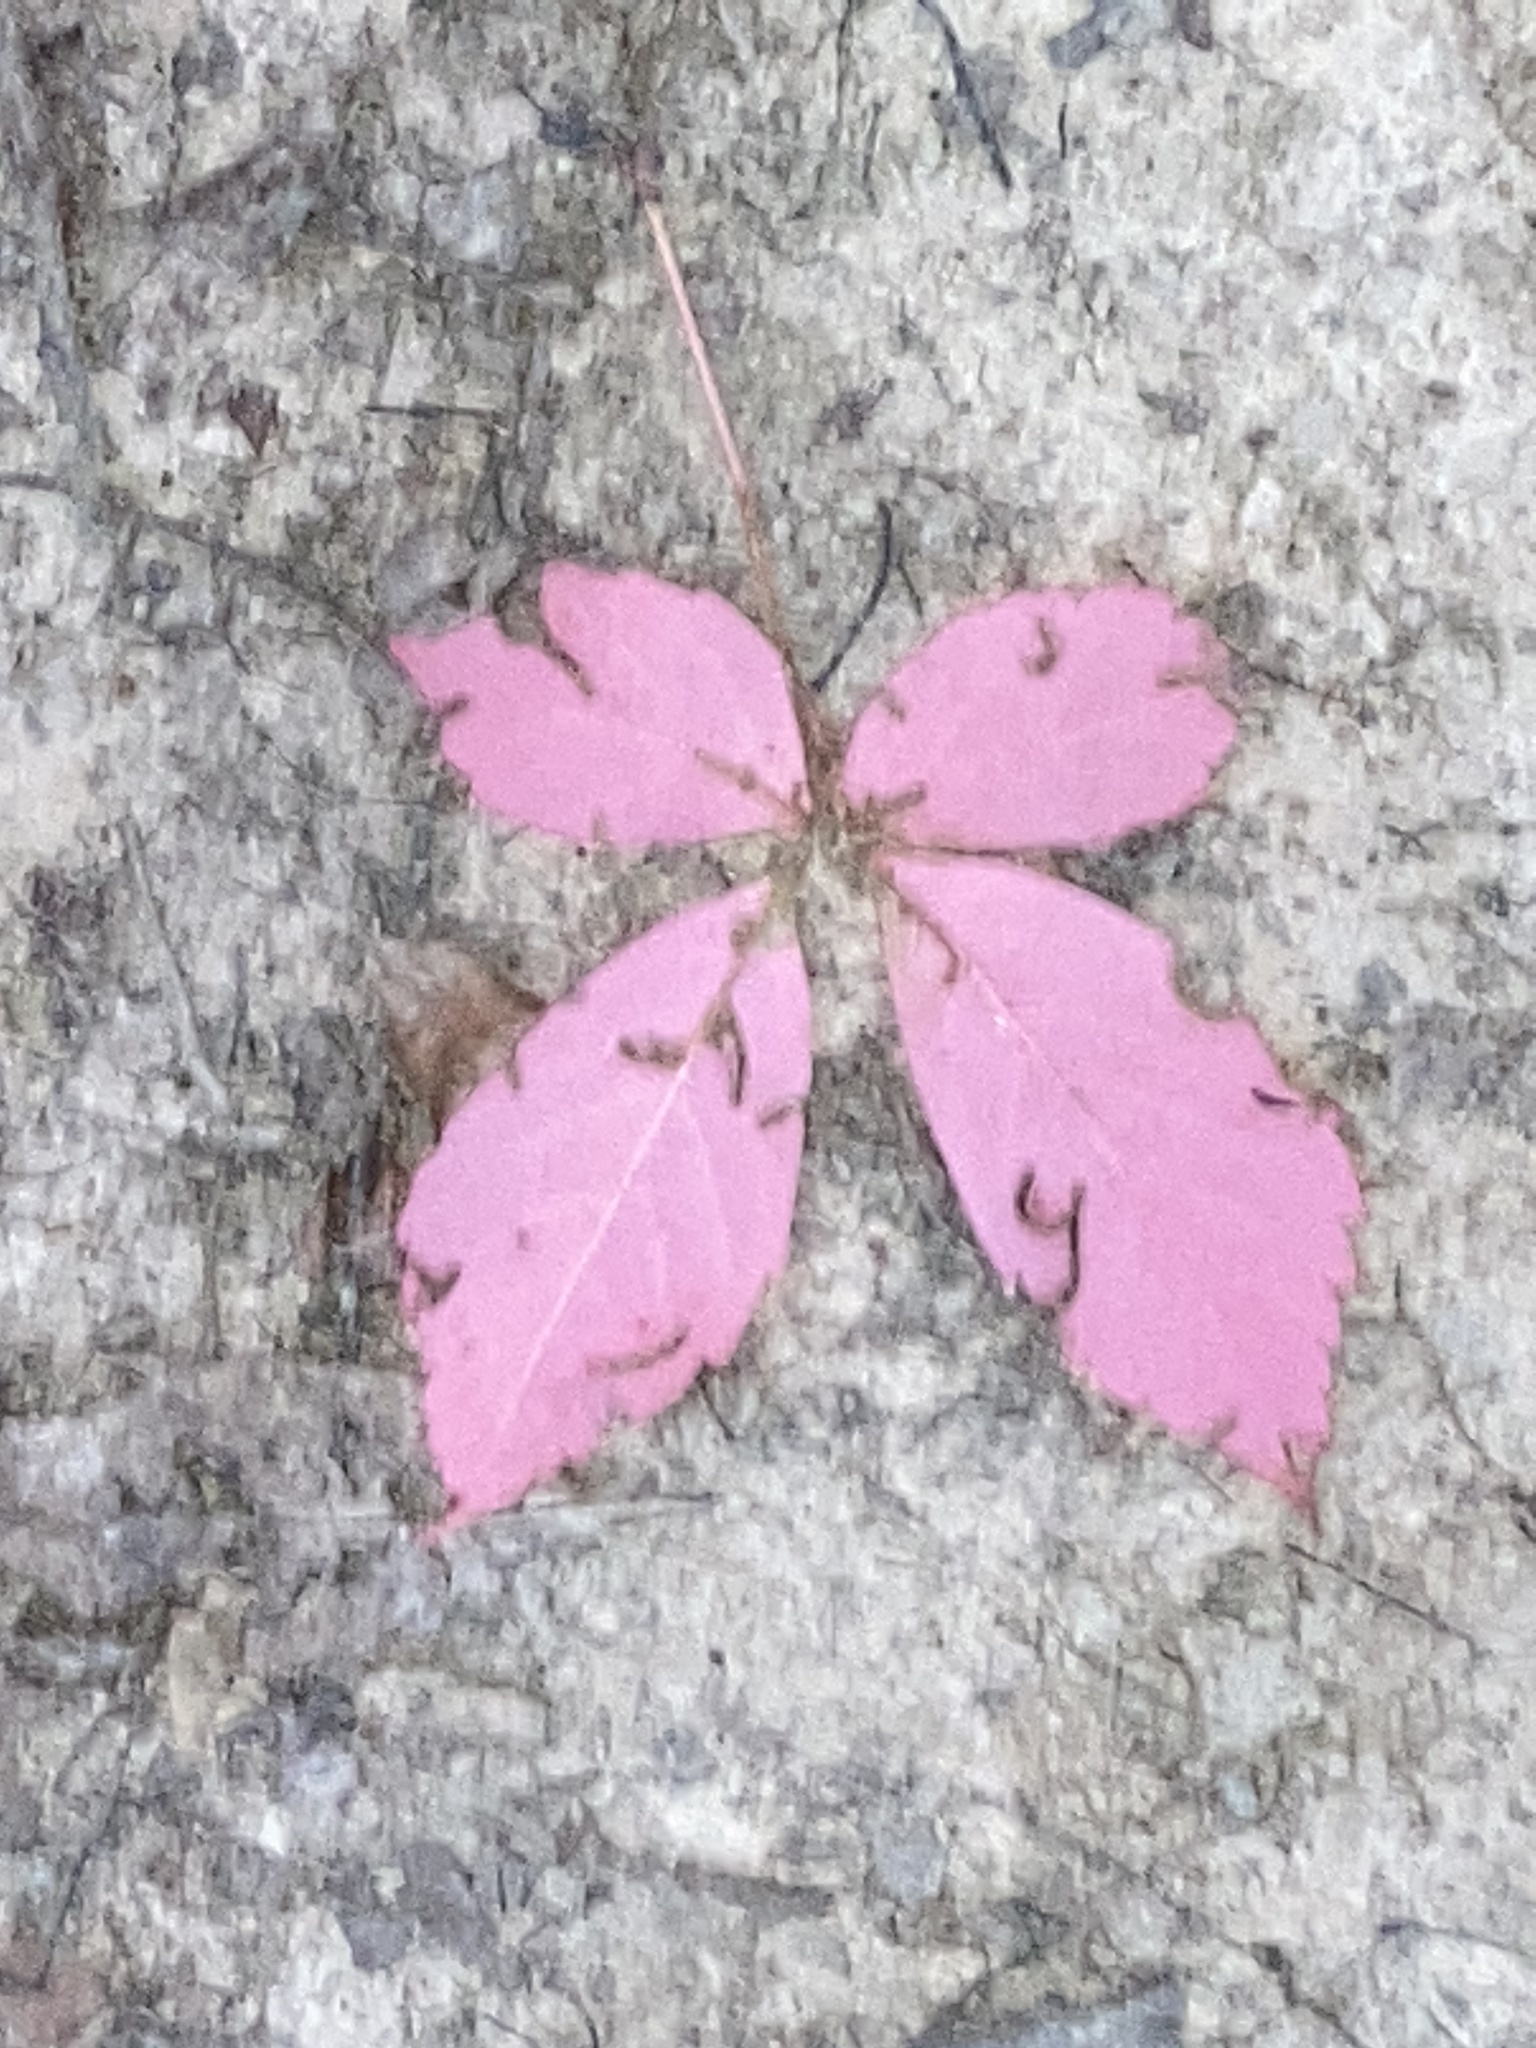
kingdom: Plantae
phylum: Tracheophyta
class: Magnoliopsida
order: Vitales
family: Vitaceae
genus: Parthenocissus
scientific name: Parthenocissus quinquefolia
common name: Virginia-creeper
